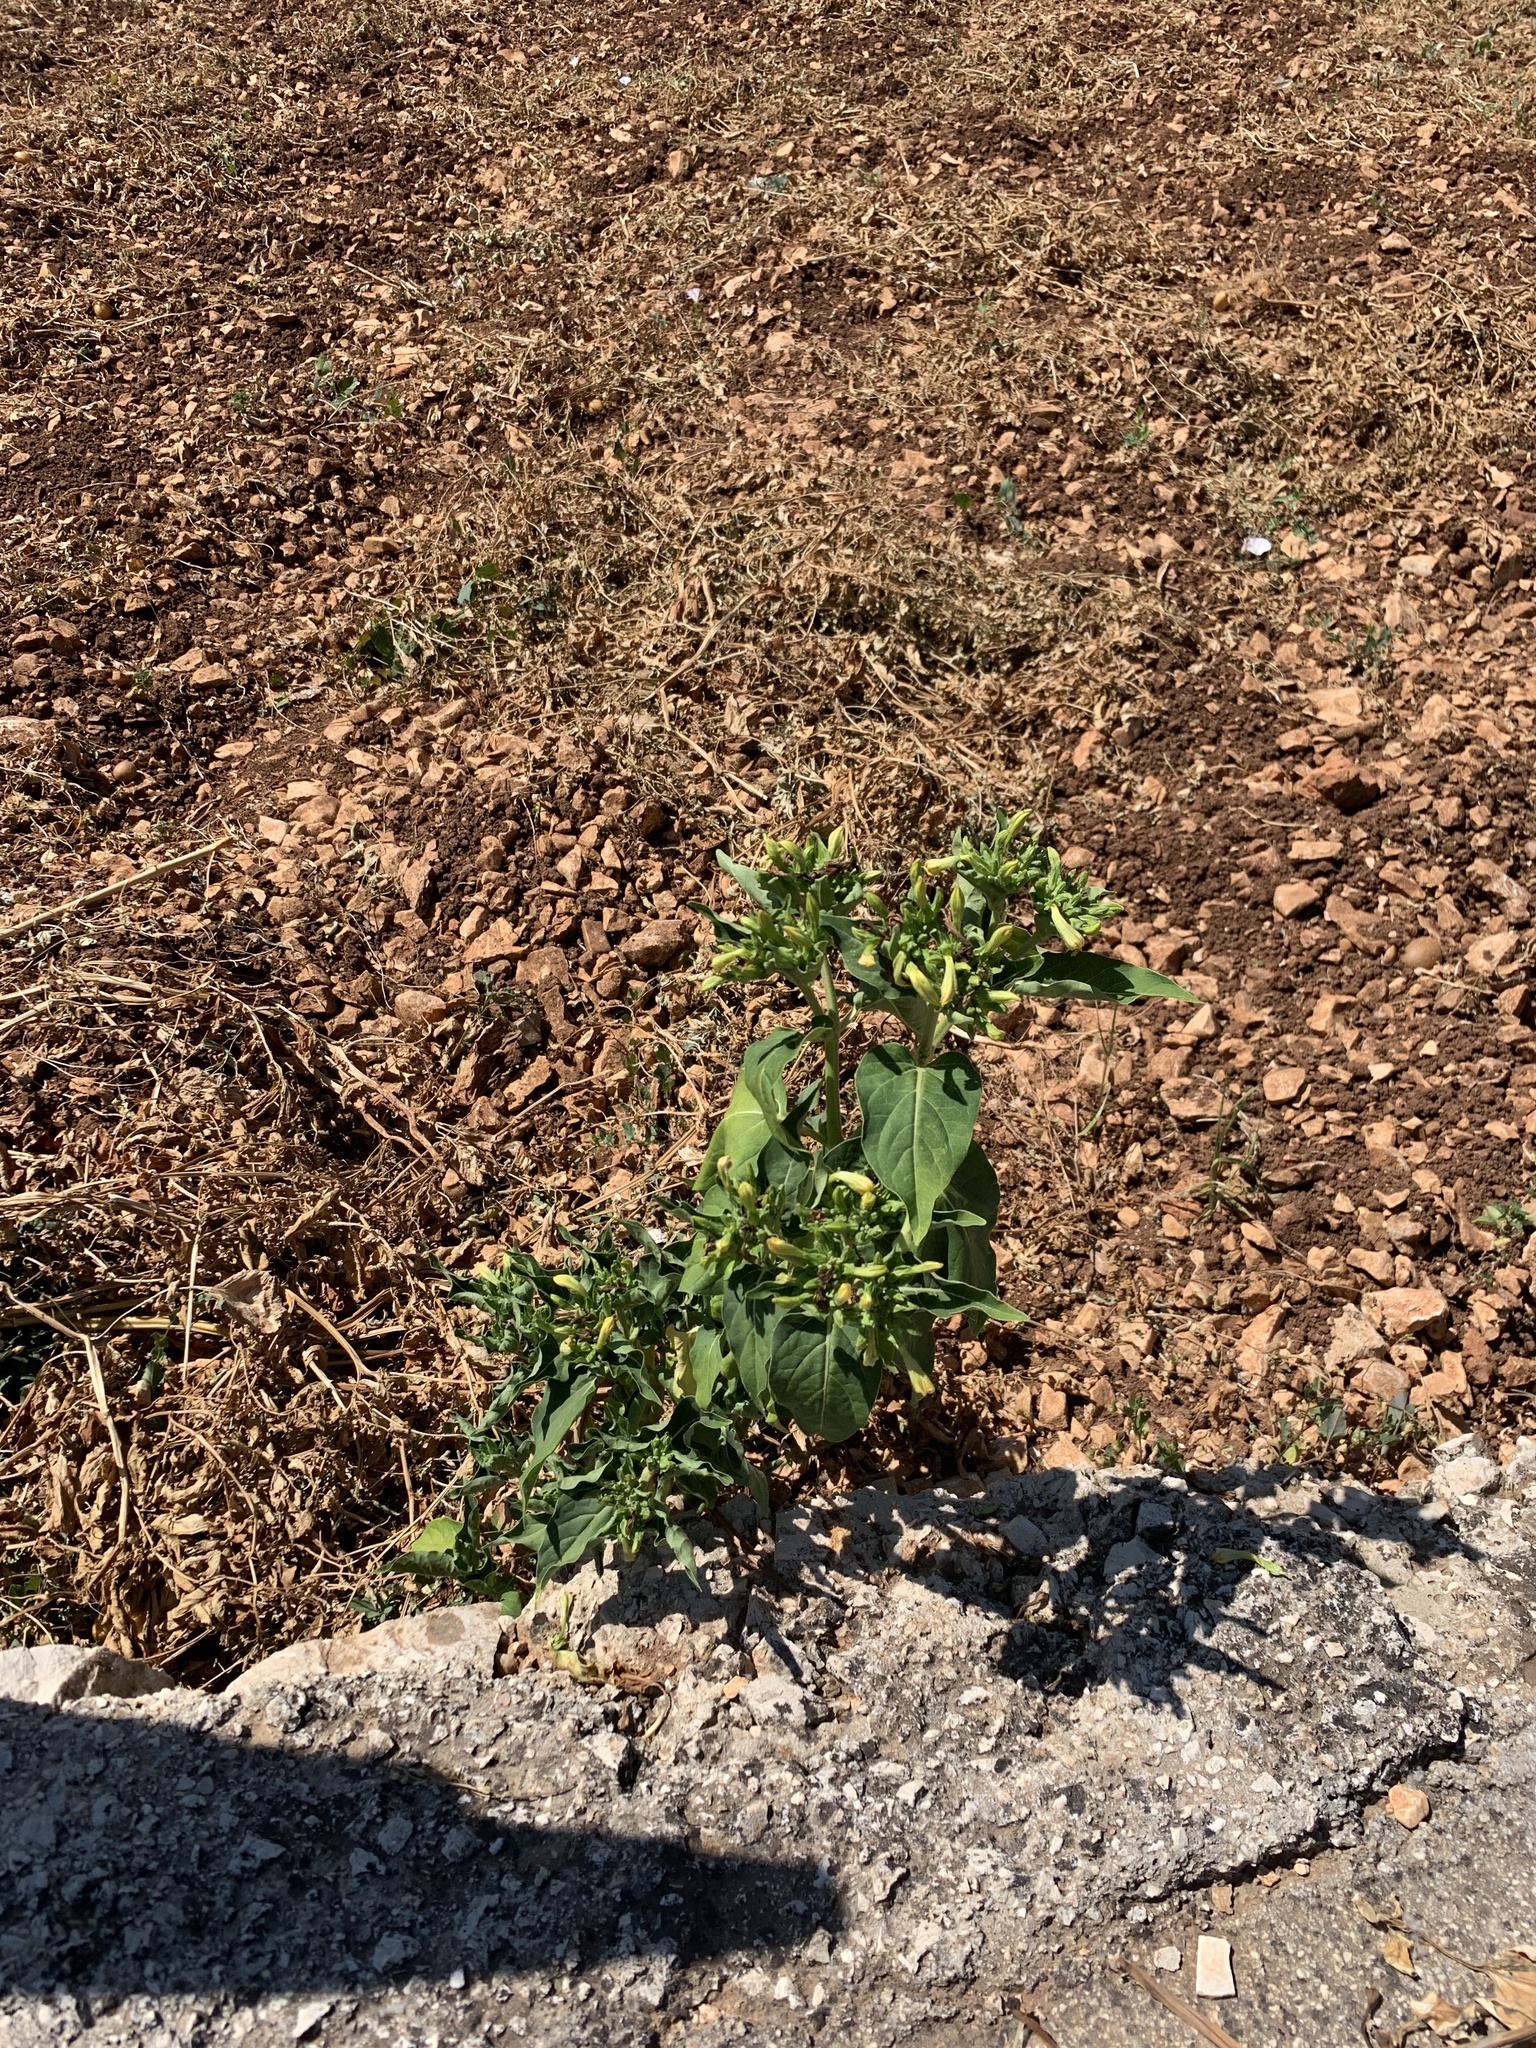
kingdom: Plantae
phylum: Tracheophyta
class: Magnoliopsida
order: Caryophyllales
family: Nyctaginaceae
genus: Mirabilis
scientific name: Mirabilis jalapa
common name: Marvel-of-peru
